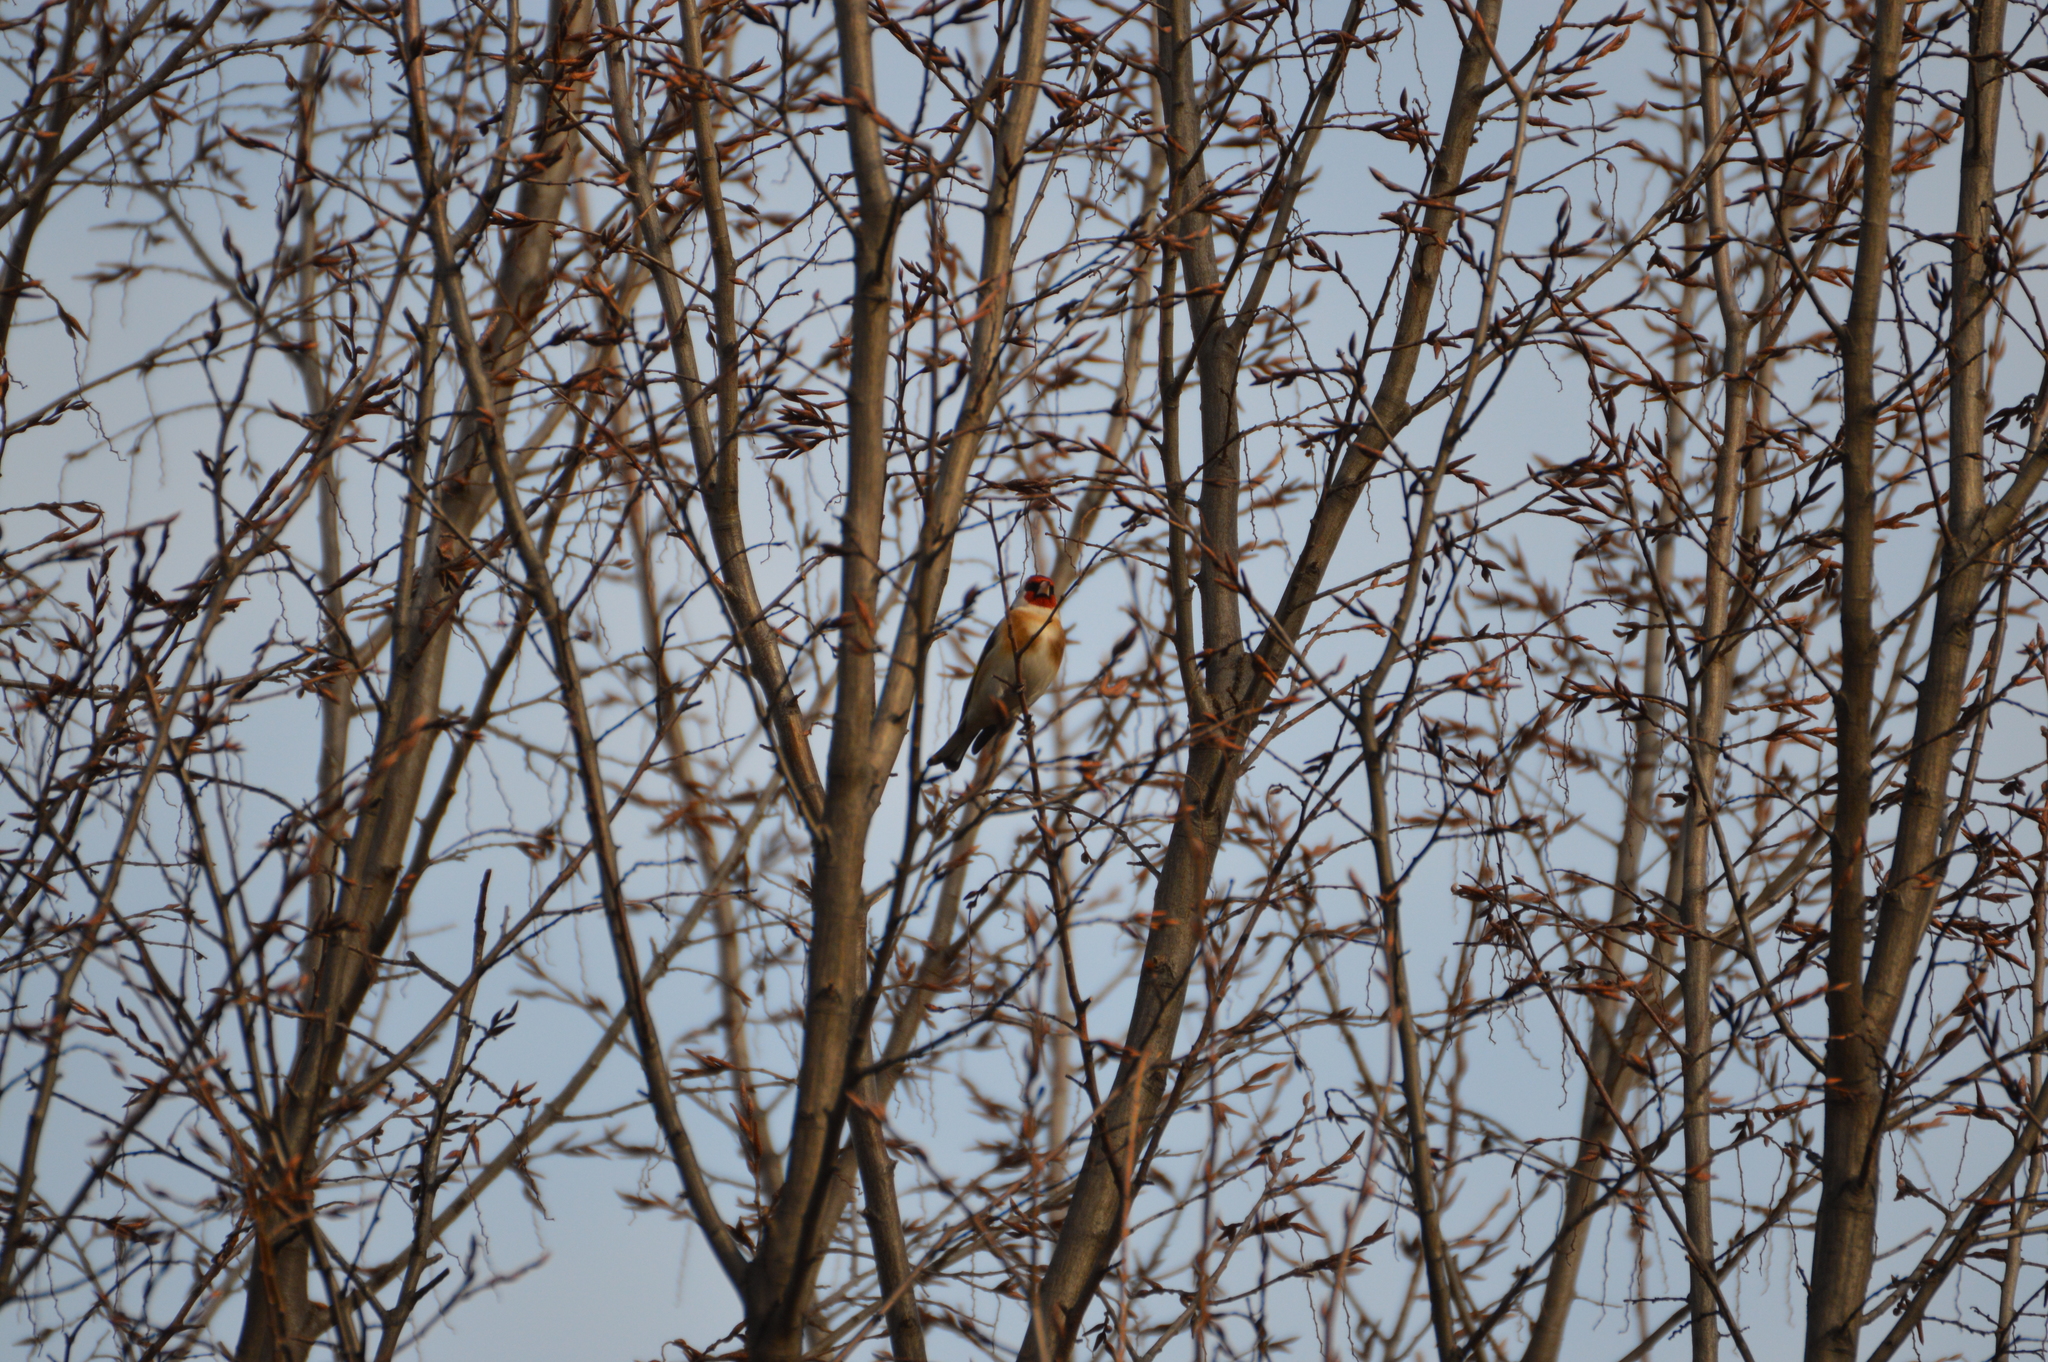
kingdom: Animalia
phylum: Chordata
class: Aves
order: Passeriformes
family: Fringillidae
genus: Carduelis
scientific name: Carduelis carduelis
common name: European goldfinch
